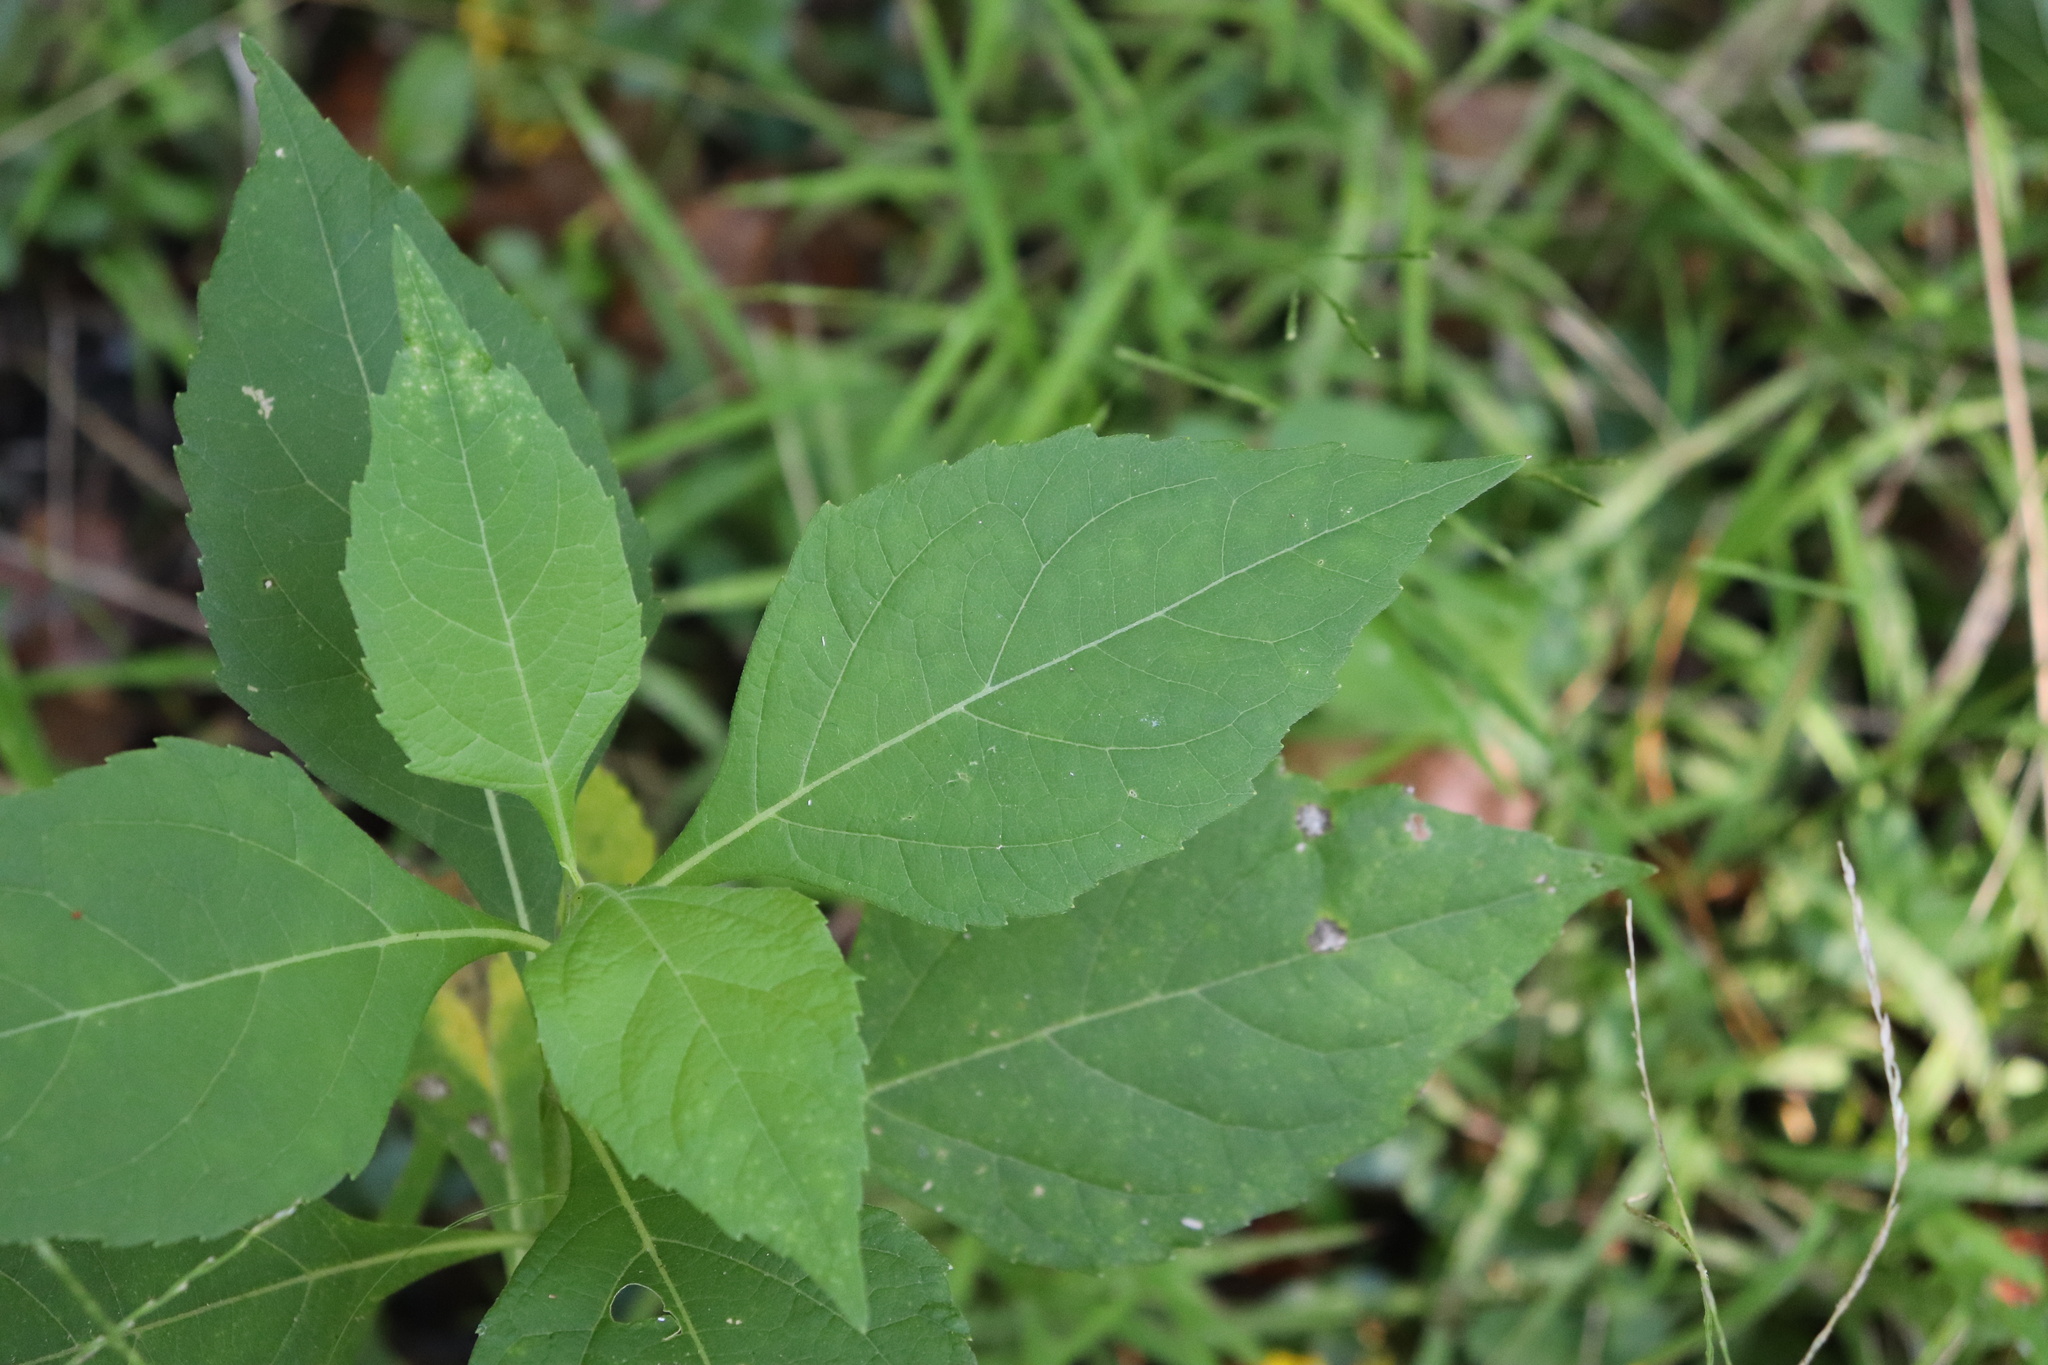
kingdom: Plantae
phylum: Tracheophyta
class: Magnoliopsida
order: Asterales
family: Asteraceae
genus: Verbesina
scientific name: Verbesina occidentalis
